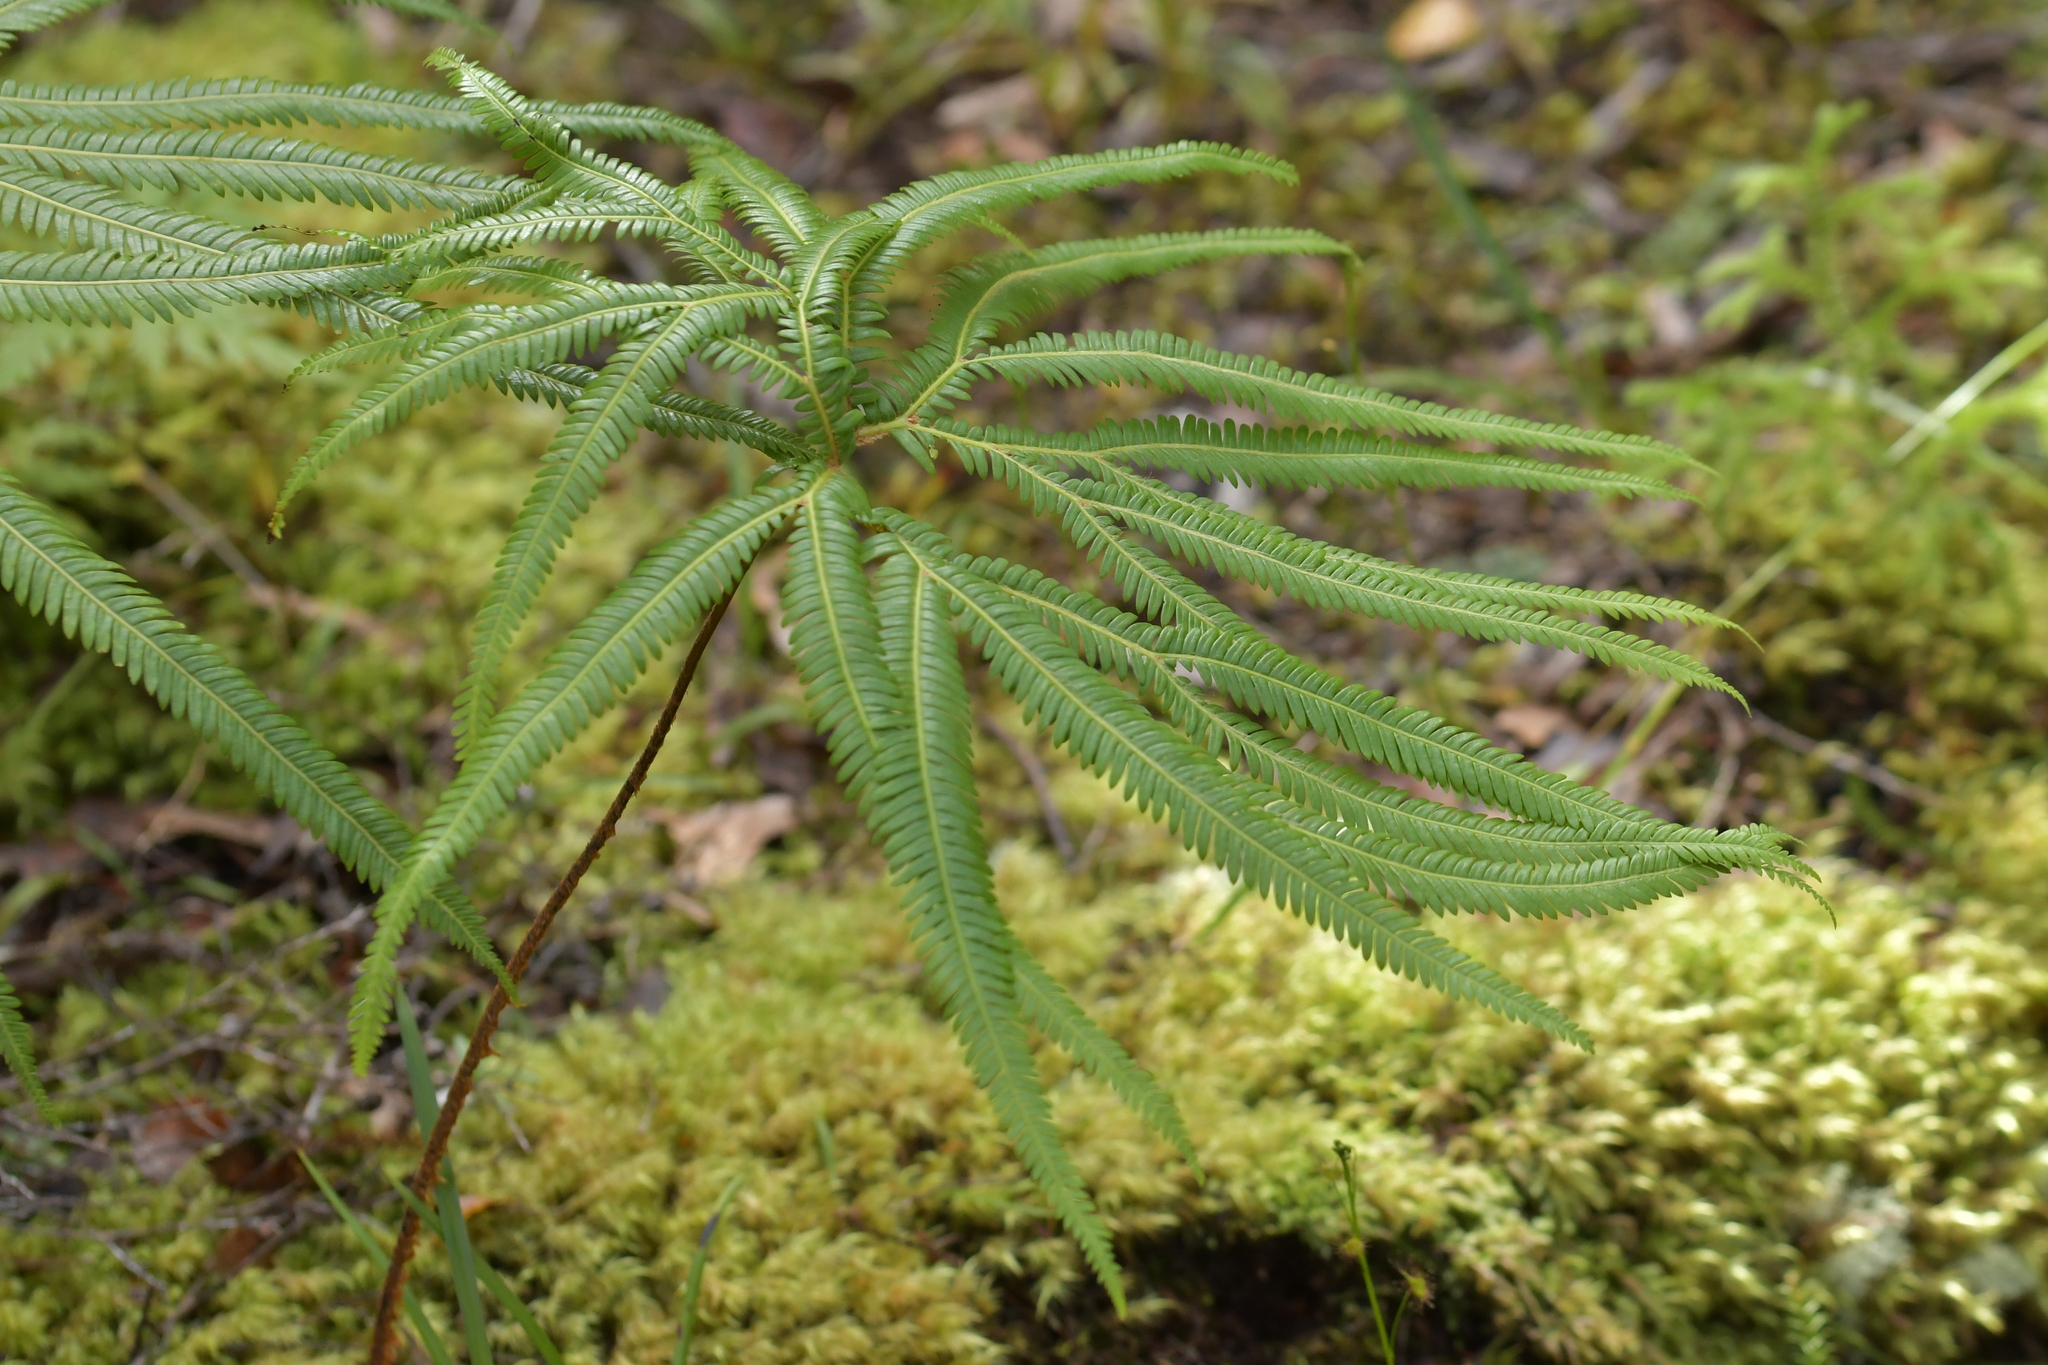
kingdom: Plantae
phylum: Tracheophyta
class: Polypodiopsida
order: Gleicheniales
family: Gleicheniaceae
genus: Sticherus
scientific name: Sticherus cunninghamii
